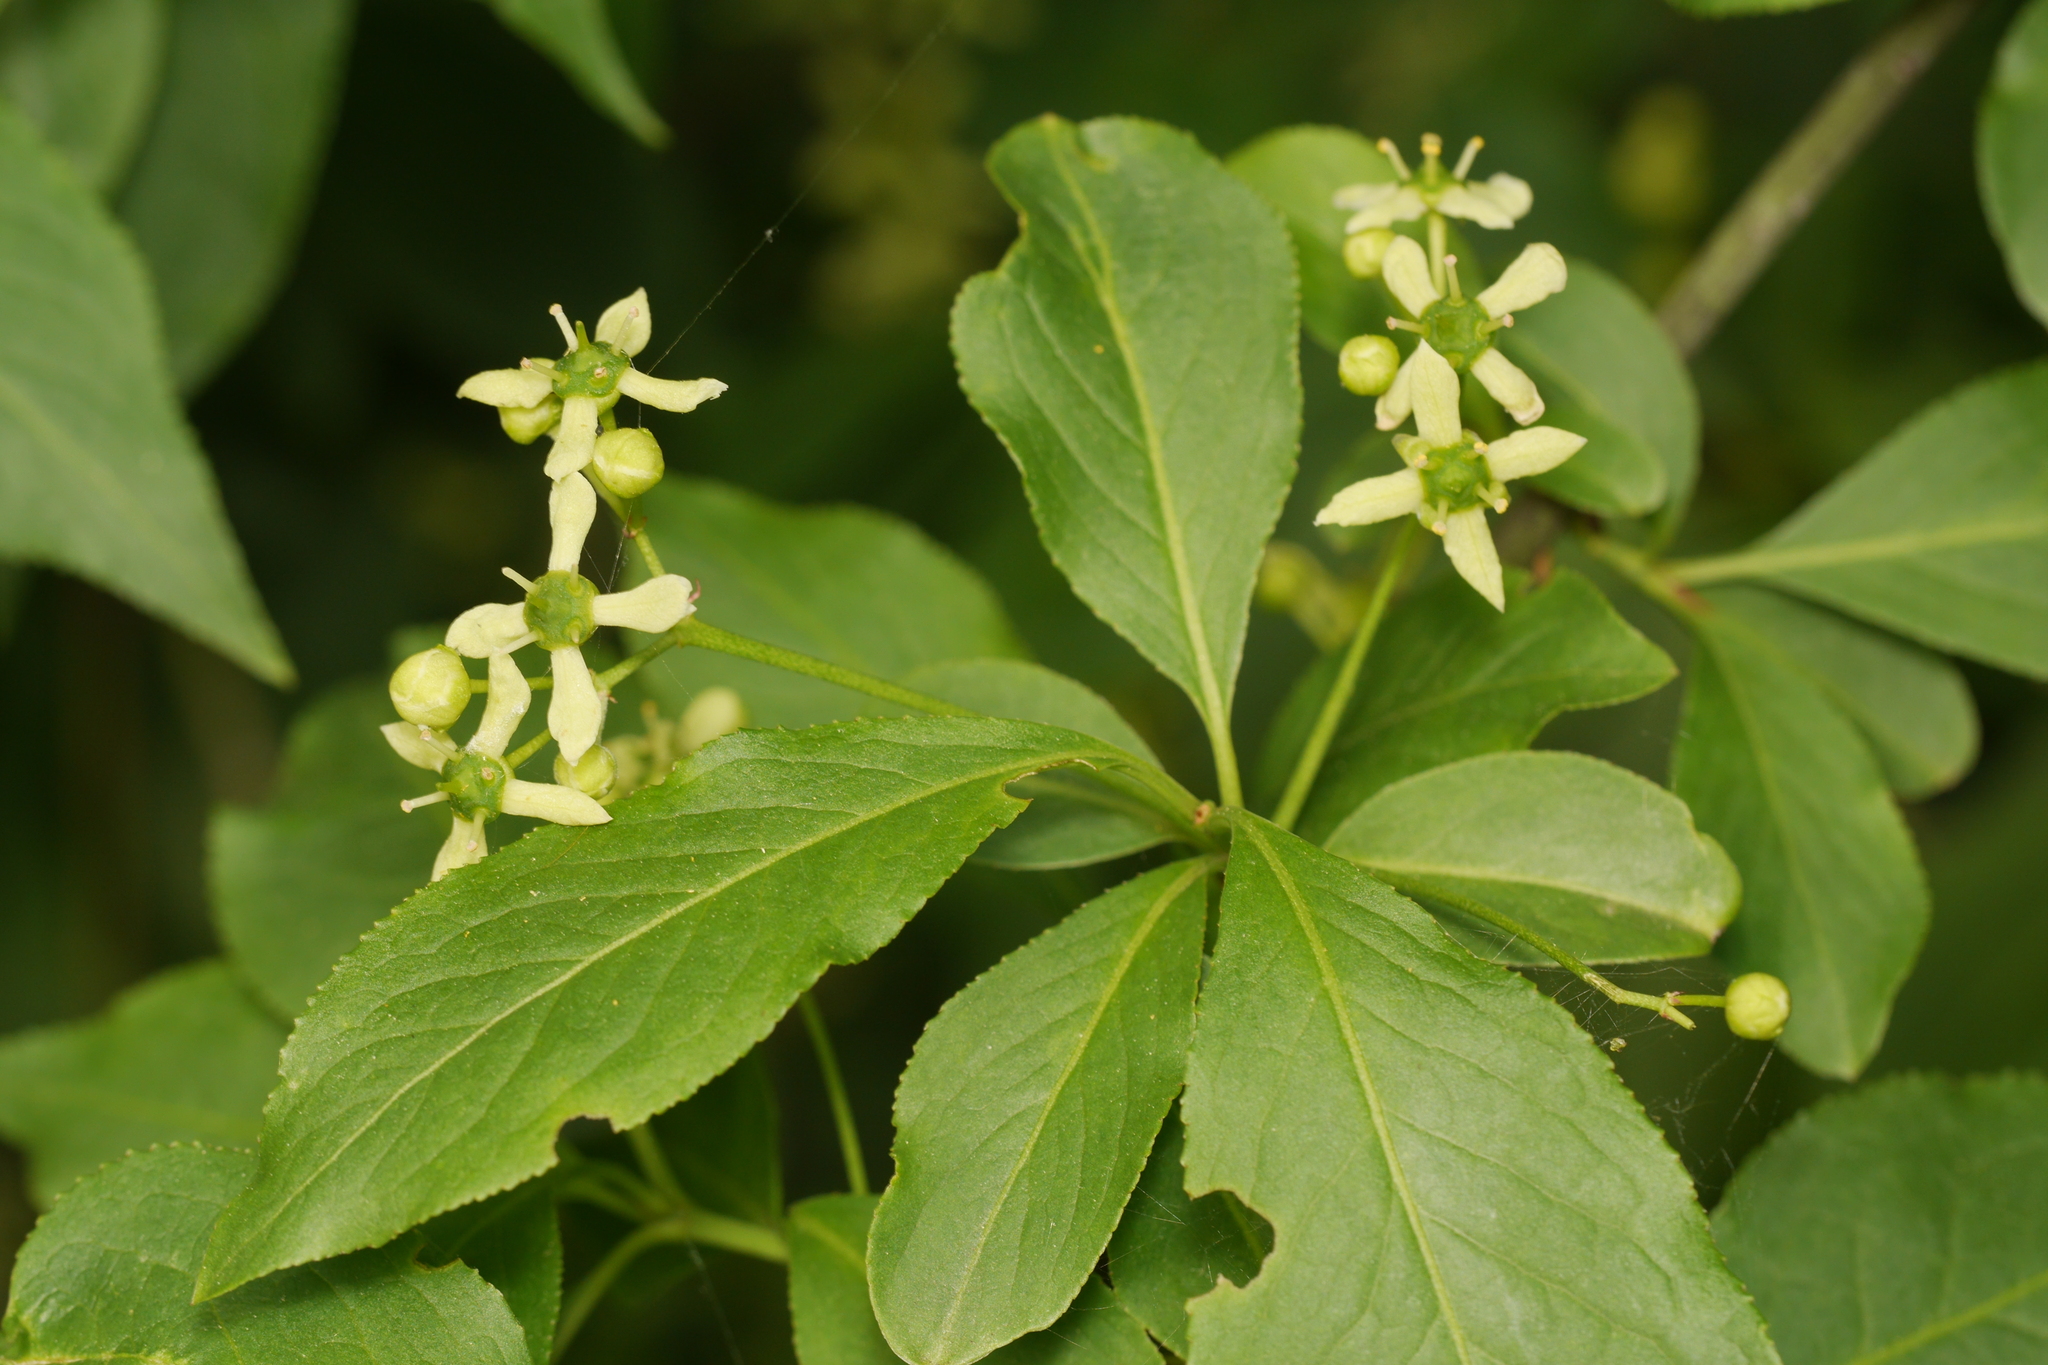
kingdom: Plantae
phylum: Tracheophyta
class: Magnoliopsida
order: Celastrales
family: Celastraceae
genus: Euonymus
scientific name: Euonymus europaeus
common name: Spindle
